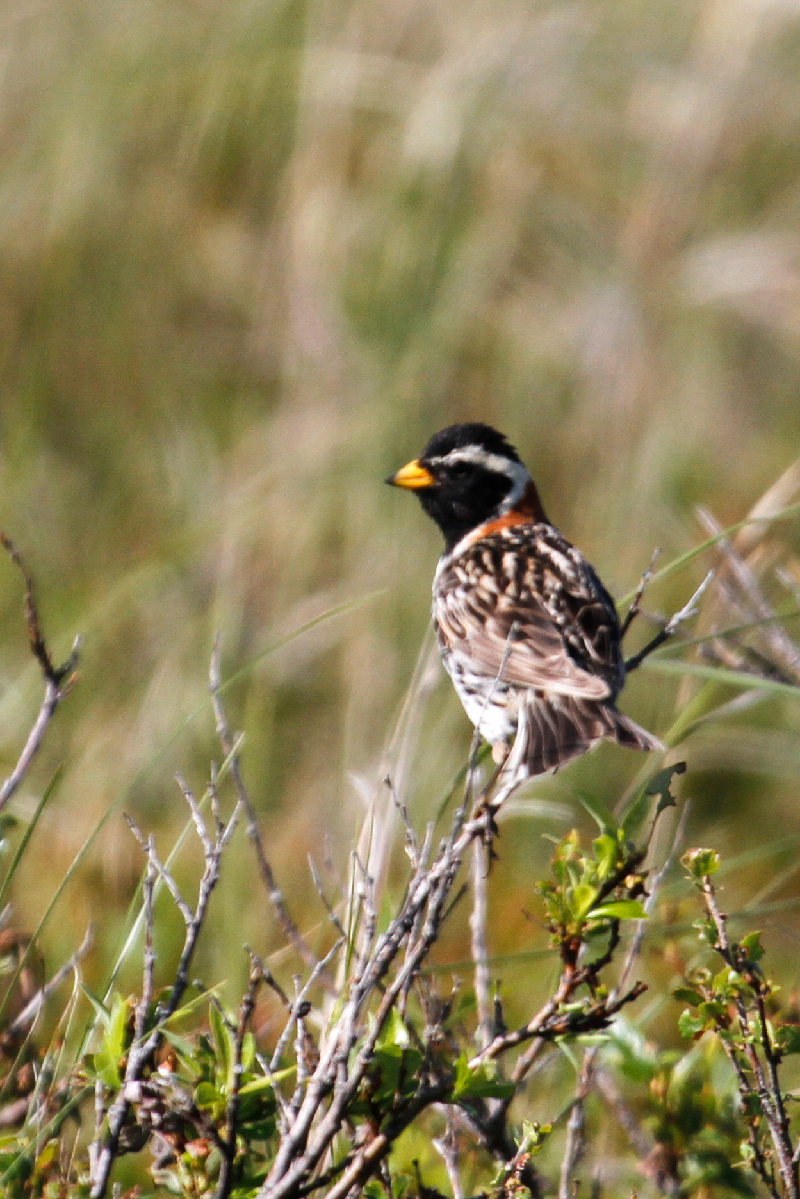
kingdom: Animalia
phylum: Chordata
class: Aves
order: Passeriformes
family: Calcariidae
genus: Calcarius
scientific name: Calcarius lapponicus
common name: Lapland longspur
